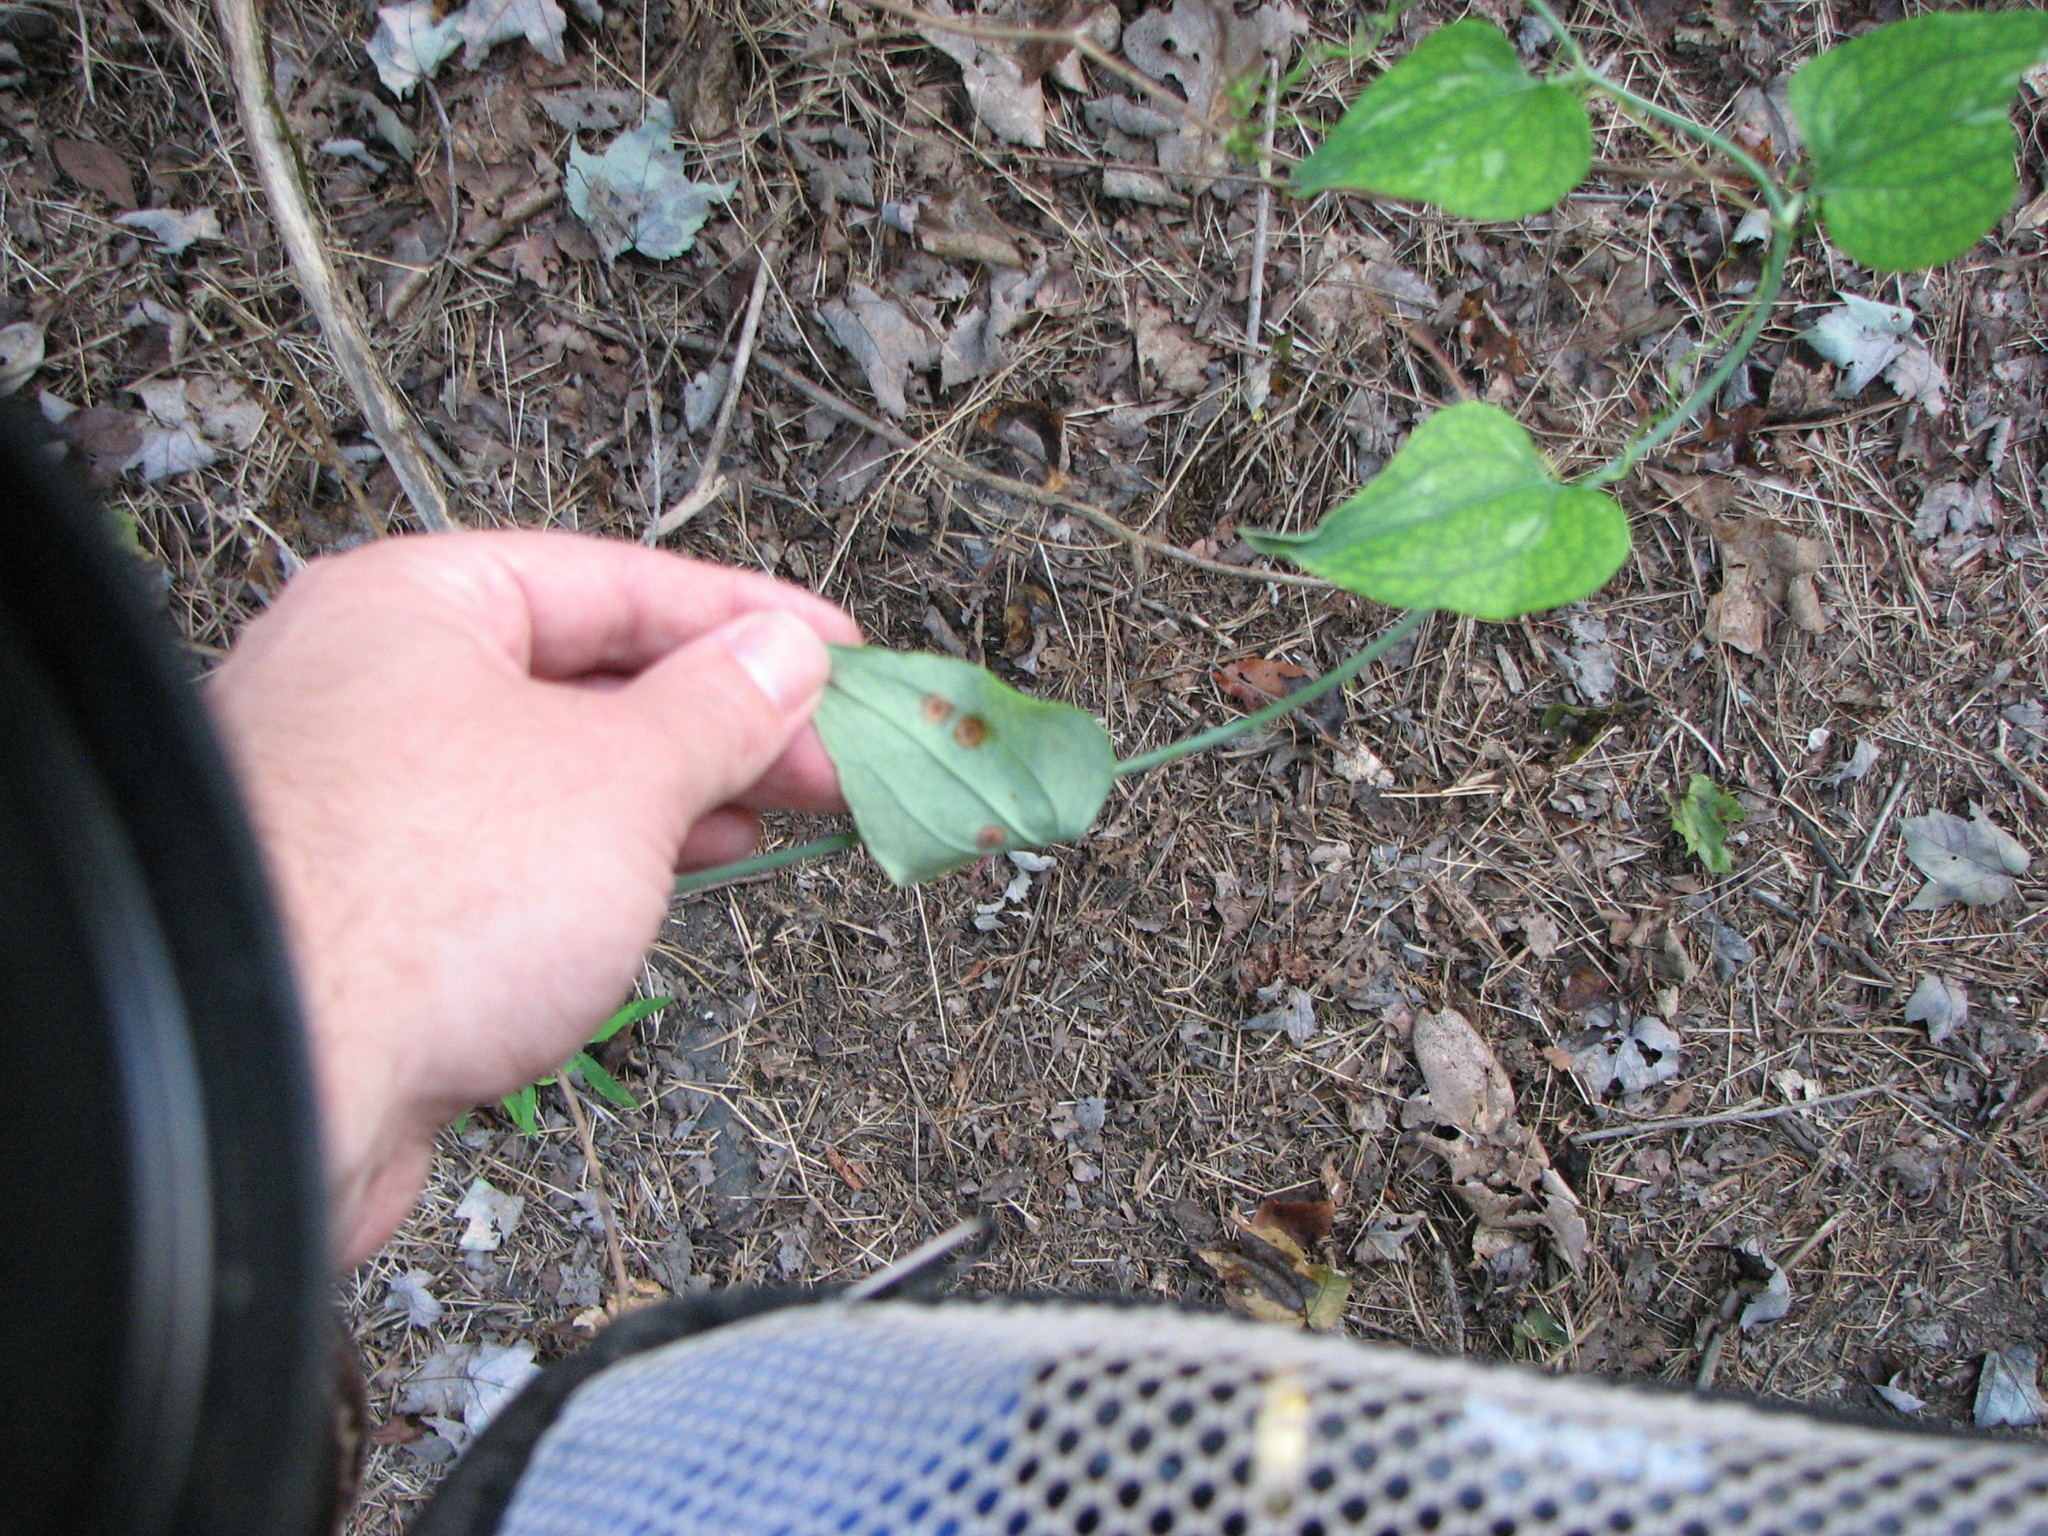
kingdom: Plantae
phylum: Tracheophyta
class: Liliopsida
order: Liliales
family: Smilacaceae
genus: Smilax
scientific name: Smilax glauca
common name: Cat greenbrier
